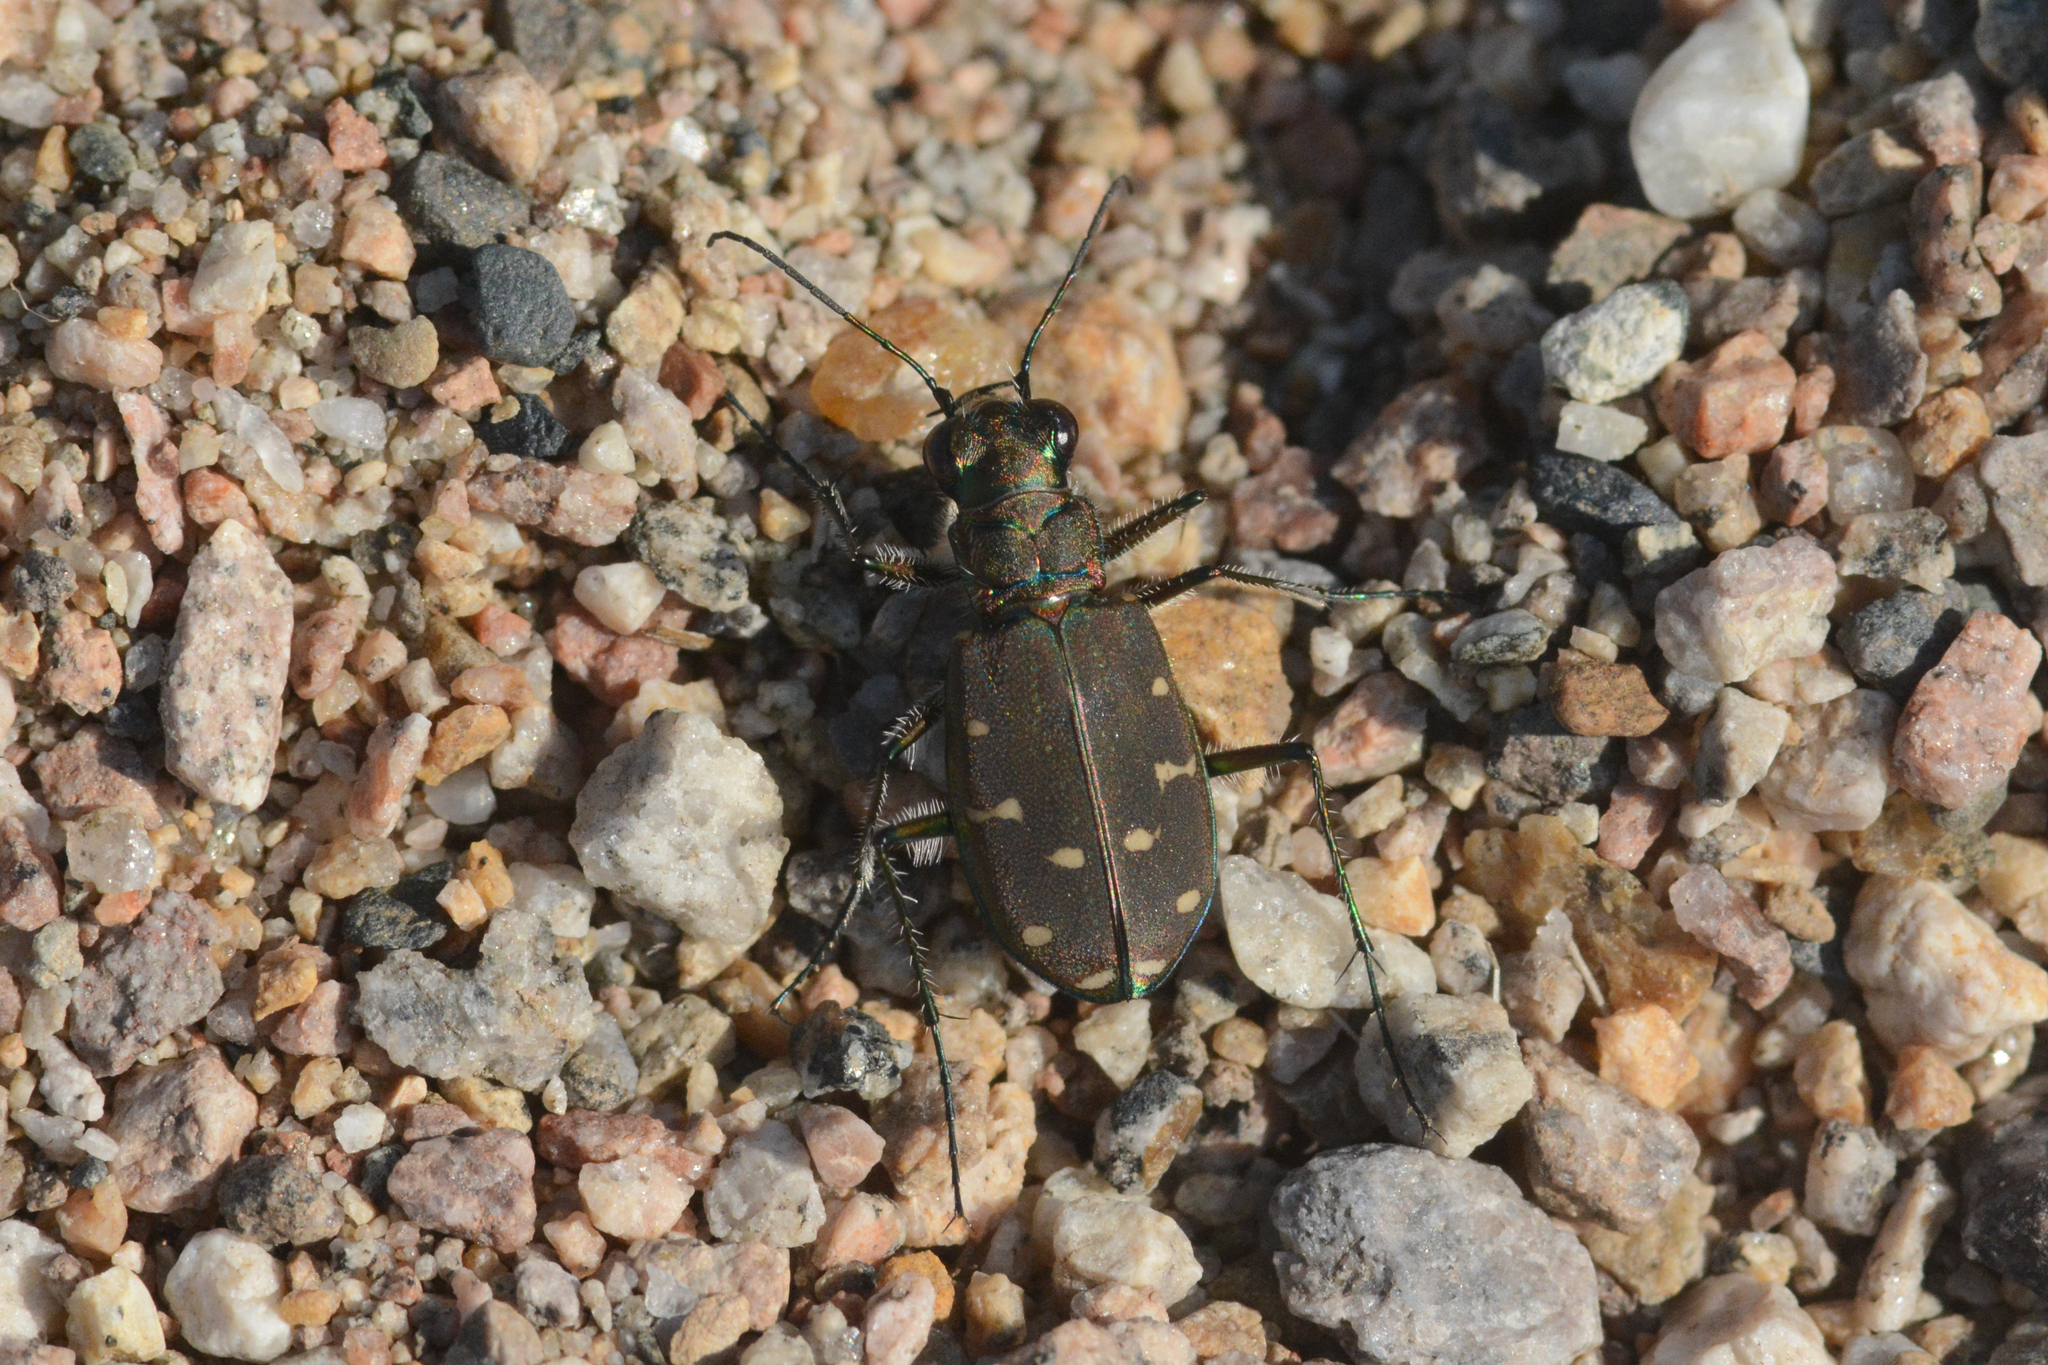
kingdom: Animalia
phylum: Arthropoda
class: Insecta
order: Coleoptera
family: Carabidae
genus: Cicindela
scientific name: Cicindela oregona
